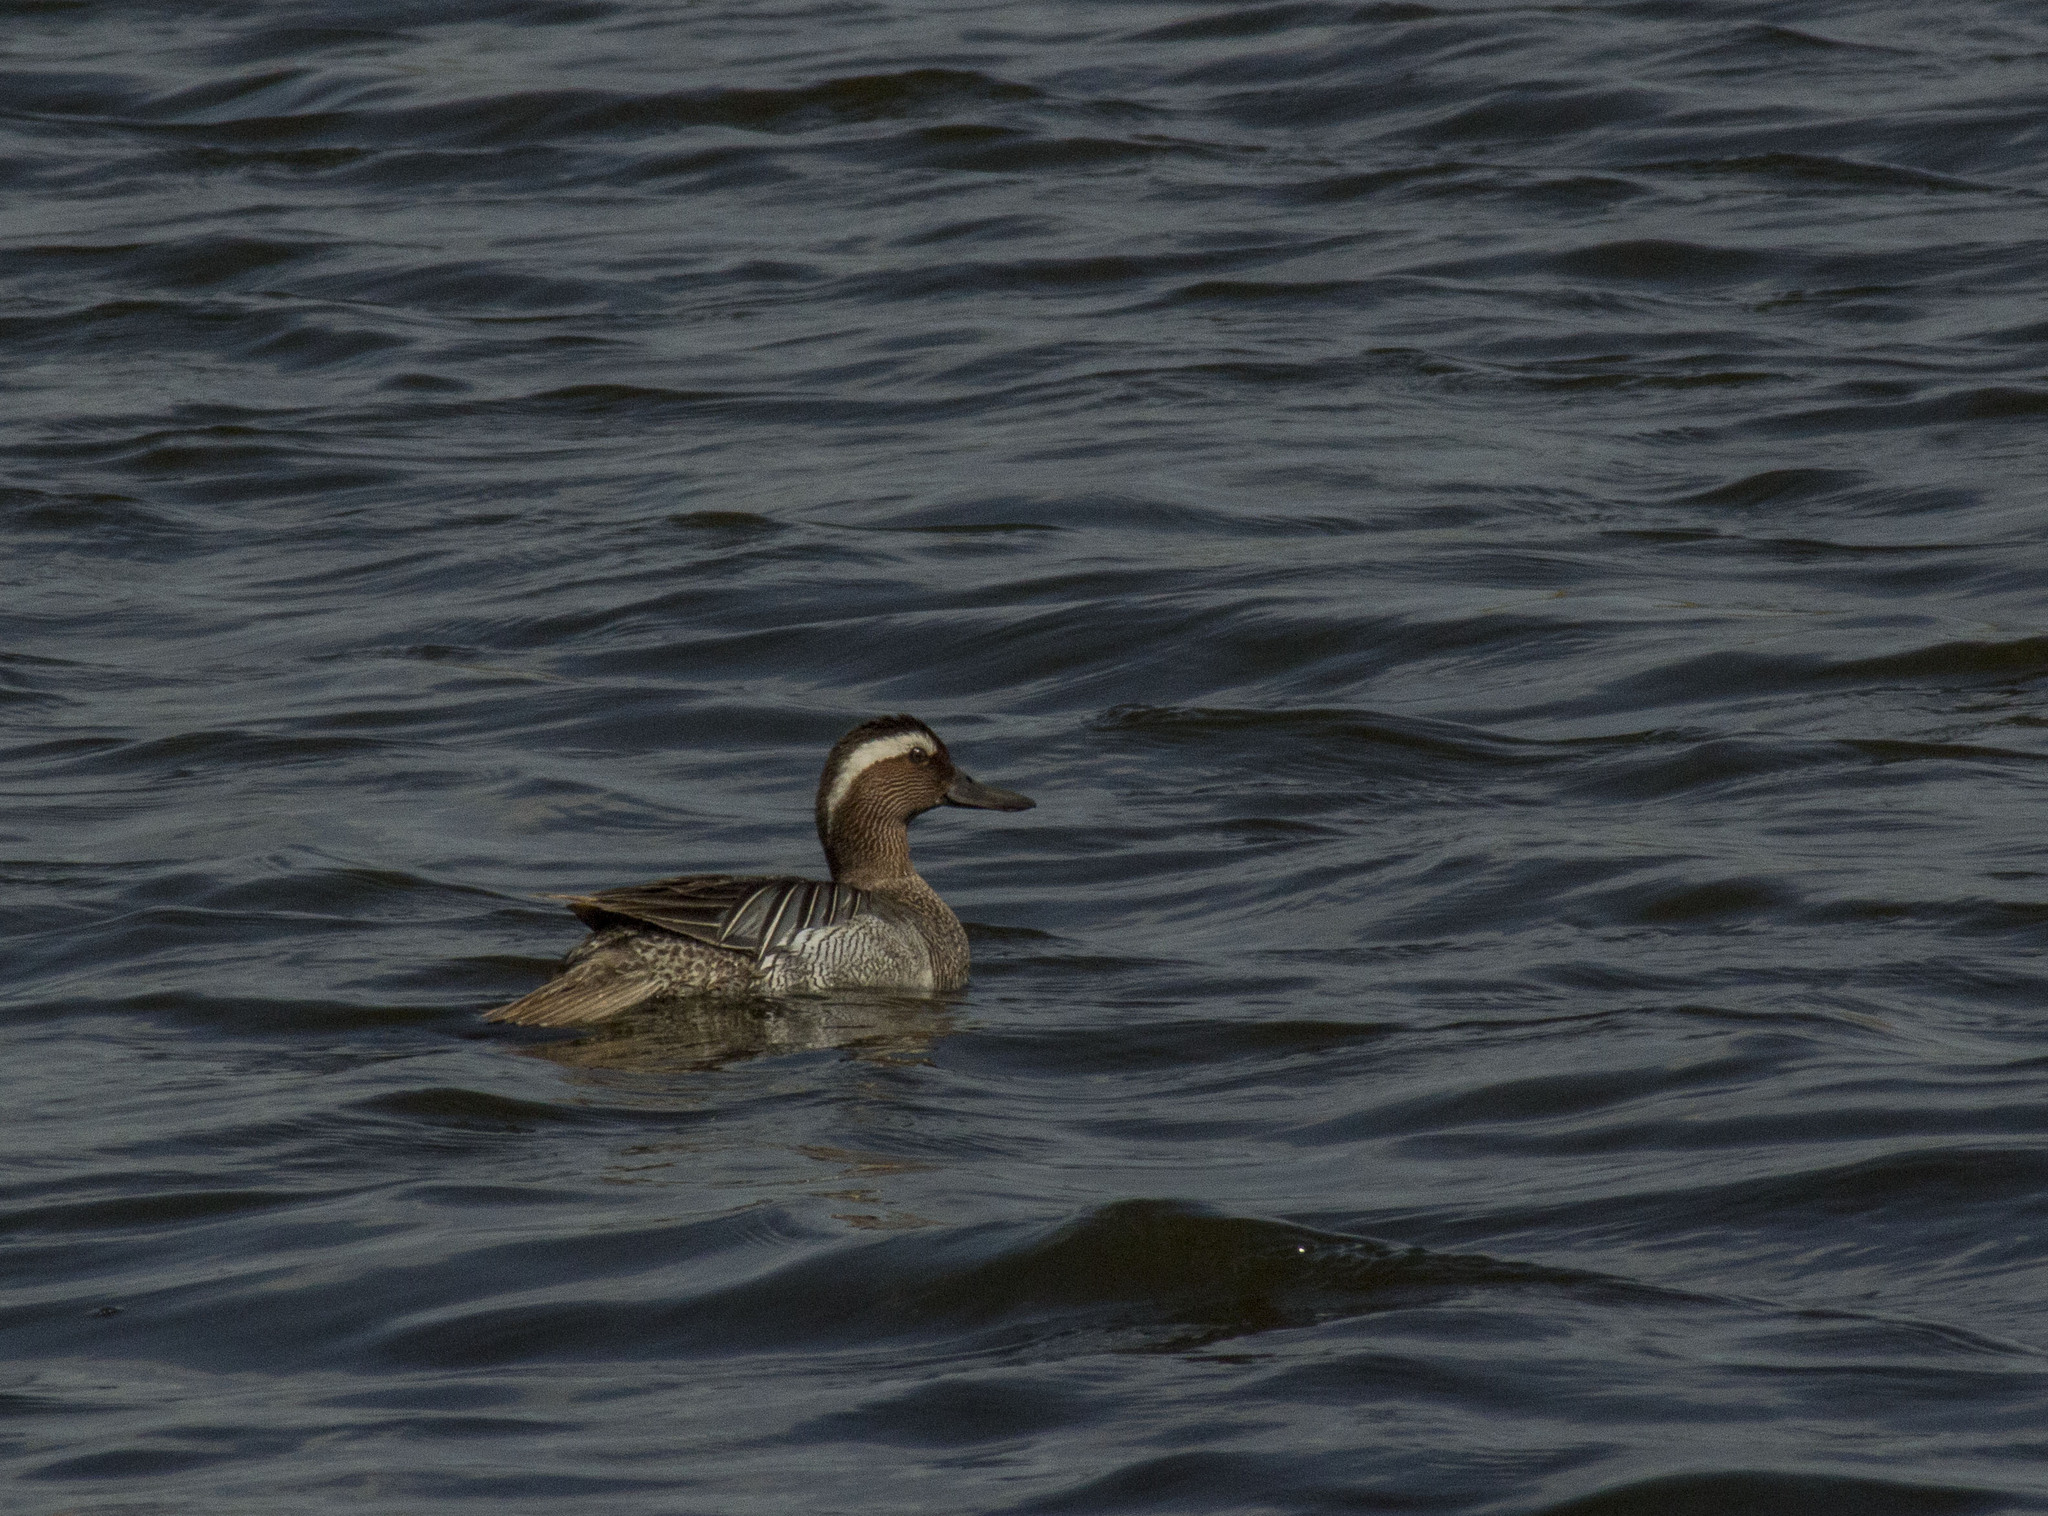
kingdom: Animalia
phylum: Chordata
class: Aves
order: Anseriformes
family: Anatidae
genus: Spatula
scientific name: Spatula querquedula
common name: Garganey
